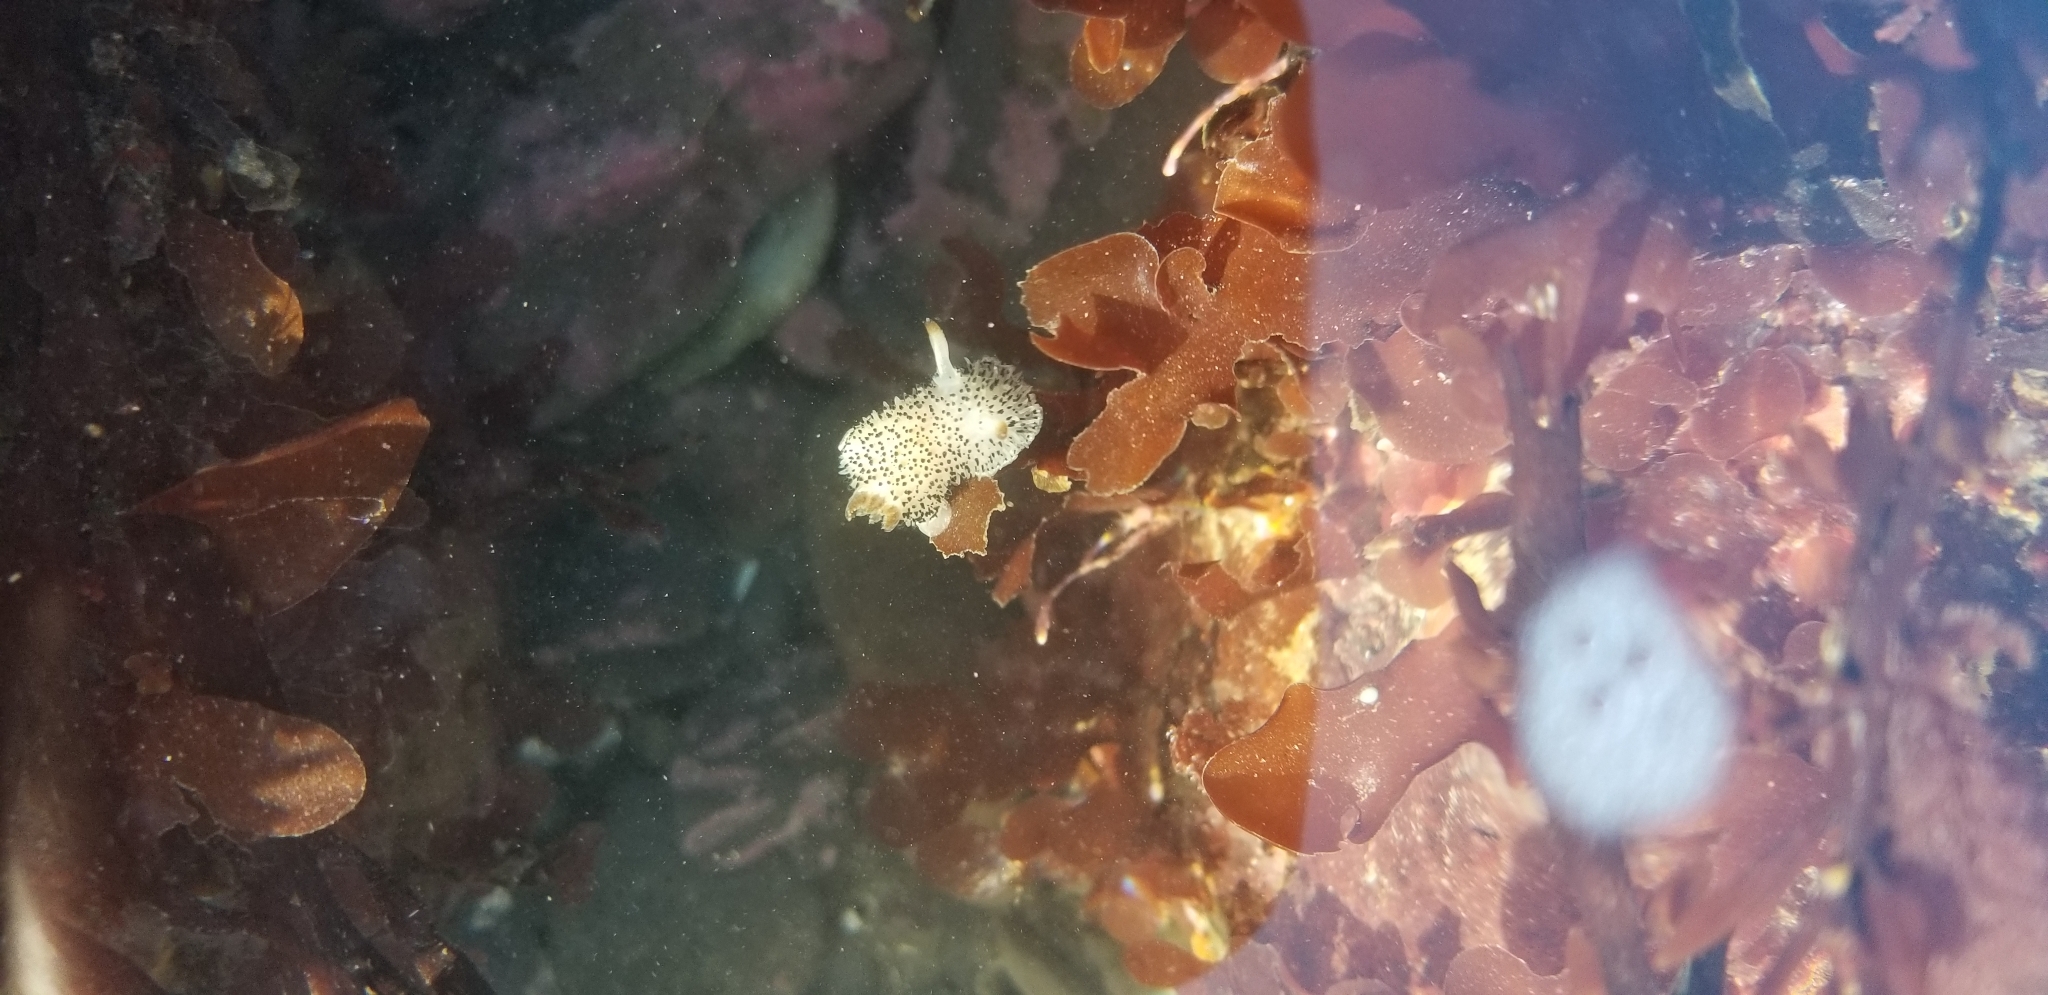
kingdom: Animalia
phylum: Mollusca
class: Gastropoda
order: Nudibranchia
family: Onchidorididae
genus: Acanthodoris
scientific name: Acanthodoris rhodoceras
